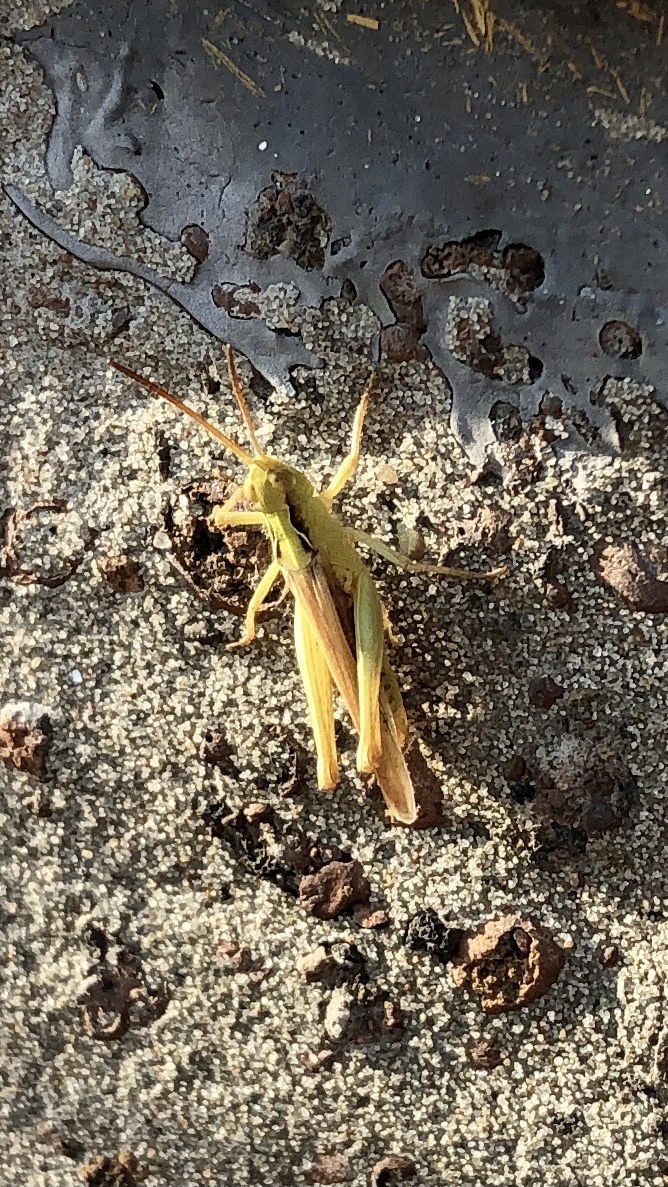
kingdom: Animalia
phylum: Arthropoda
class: Insecta
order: Orthoptera
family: Acrididae
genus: Chorthippus
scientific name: Chorthippus brunneus
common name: Field grasshopper
